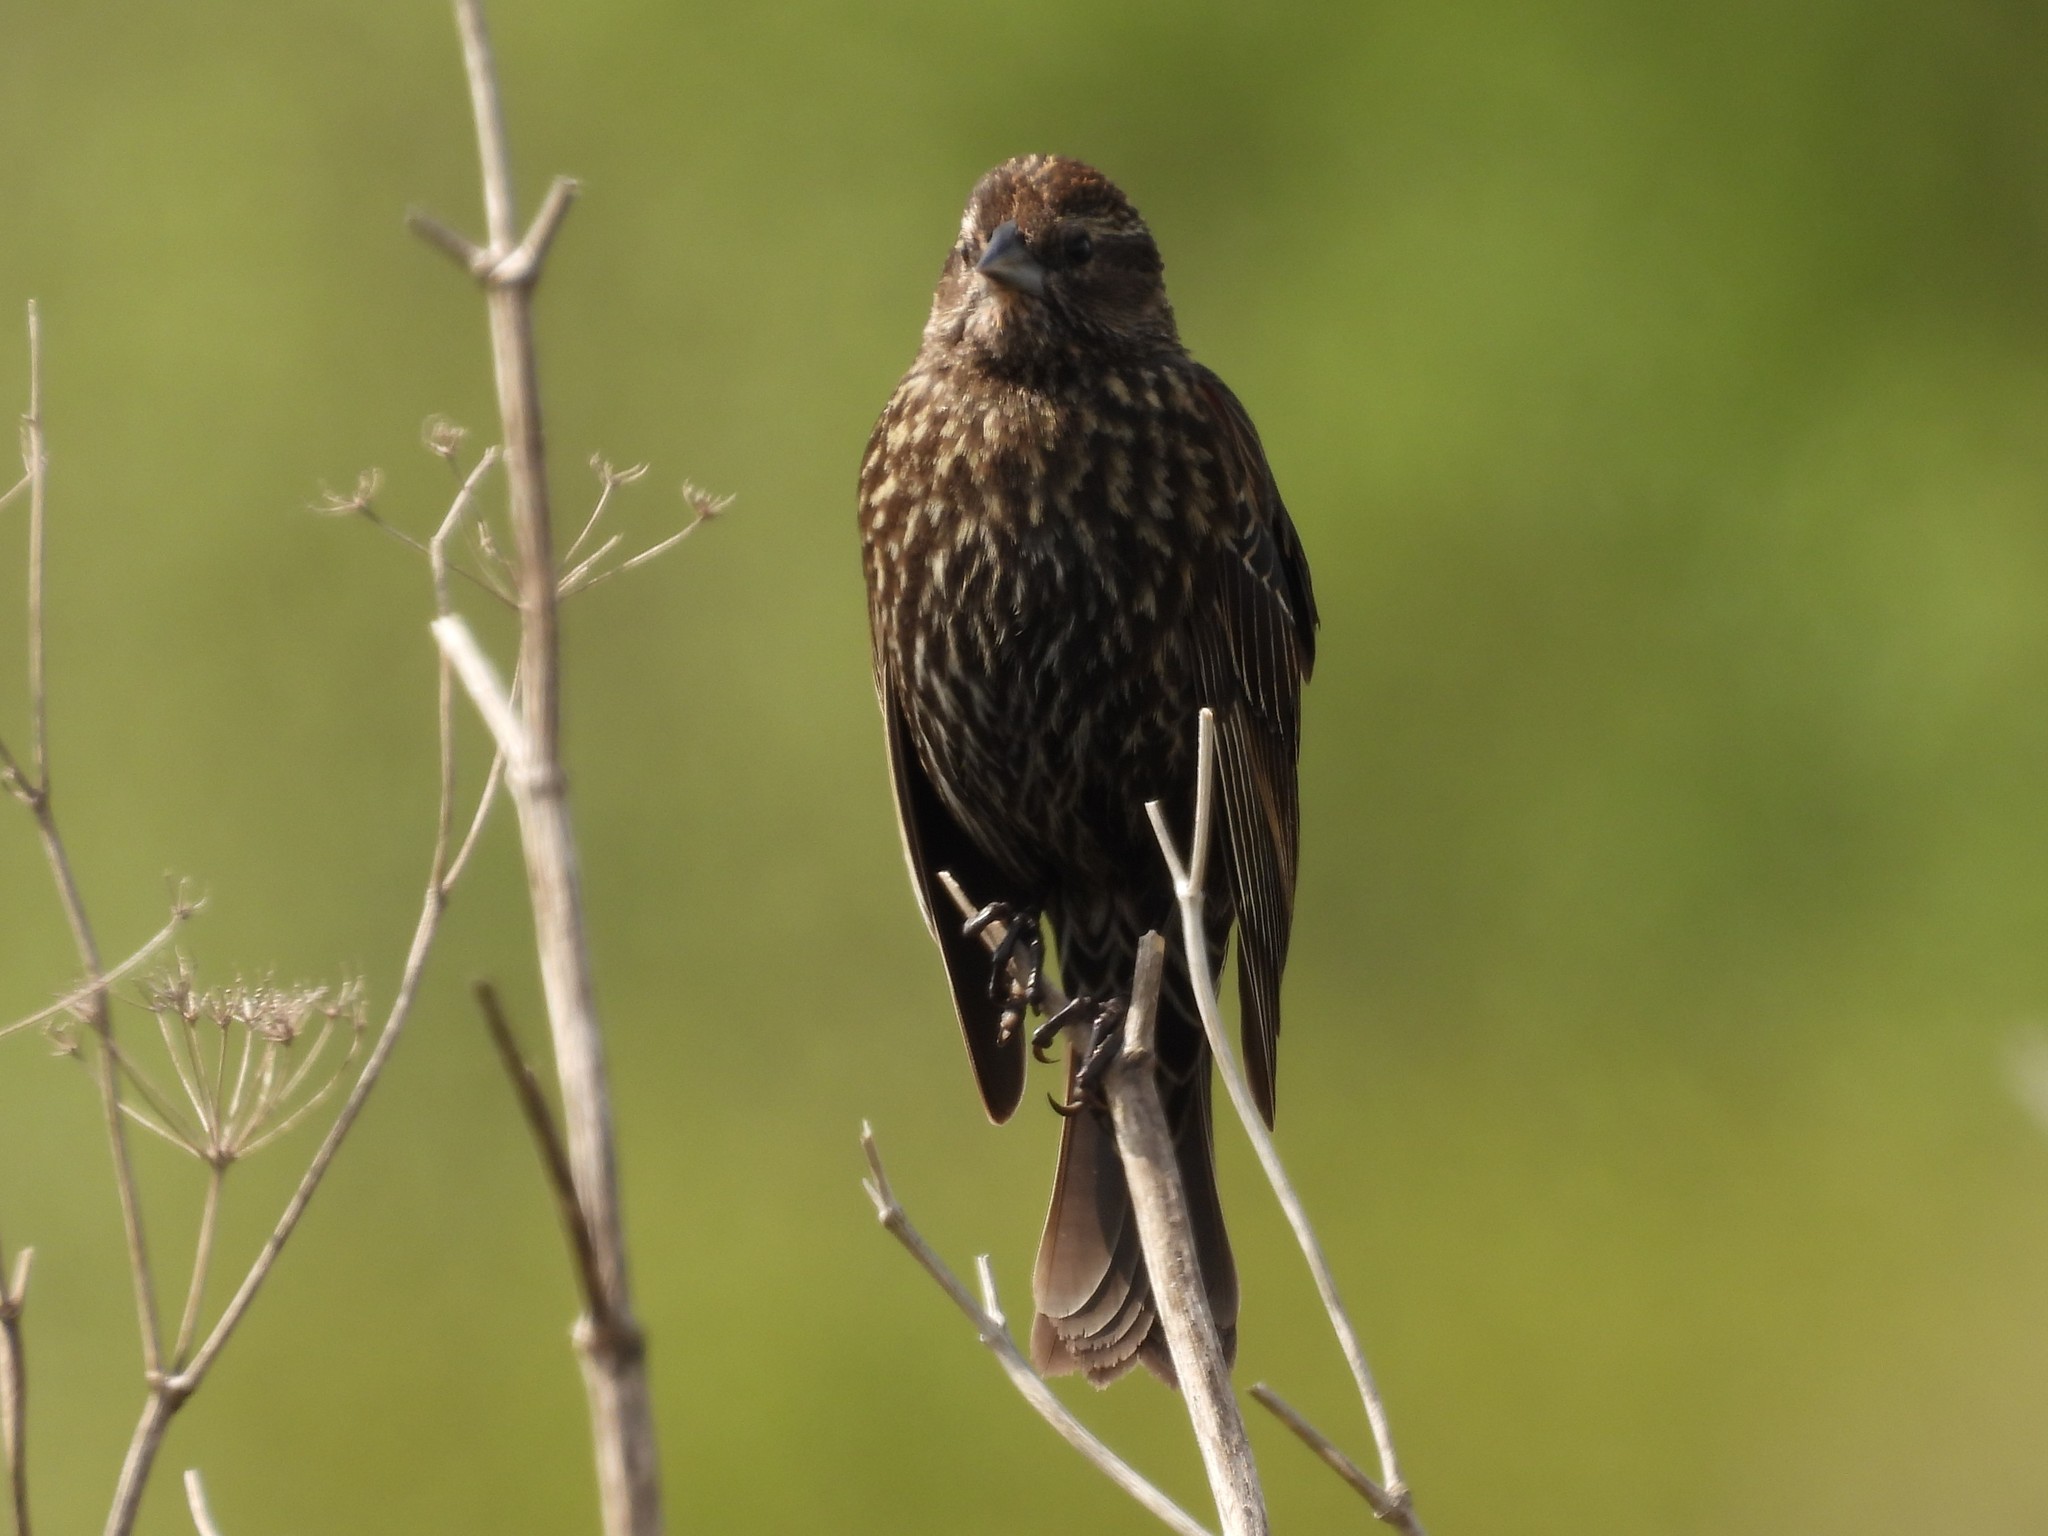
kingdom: Animalia
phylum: Chordata
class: Aves
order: Passeriformes
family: Icteridae
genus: Agelaius
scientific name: Agelaius phoeniceus
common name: Red-winged blackbird
